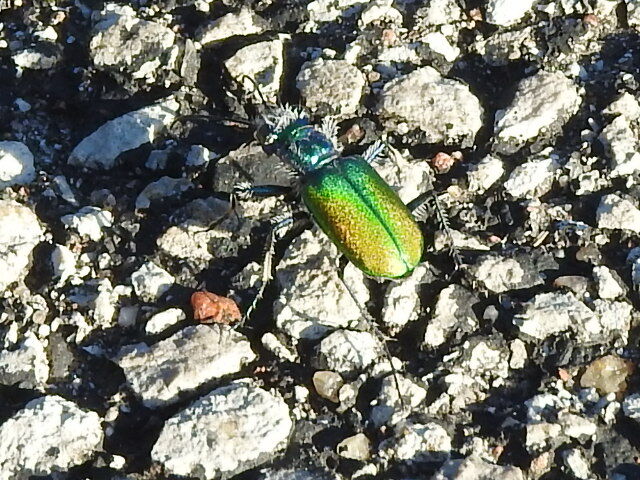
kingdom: Animalia
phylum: Arthropoda
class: Insecta
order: Coleoptera
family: Carabidae
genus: Cicindela
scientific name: Cicindela scutellaris
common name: Festive tiger beetle
